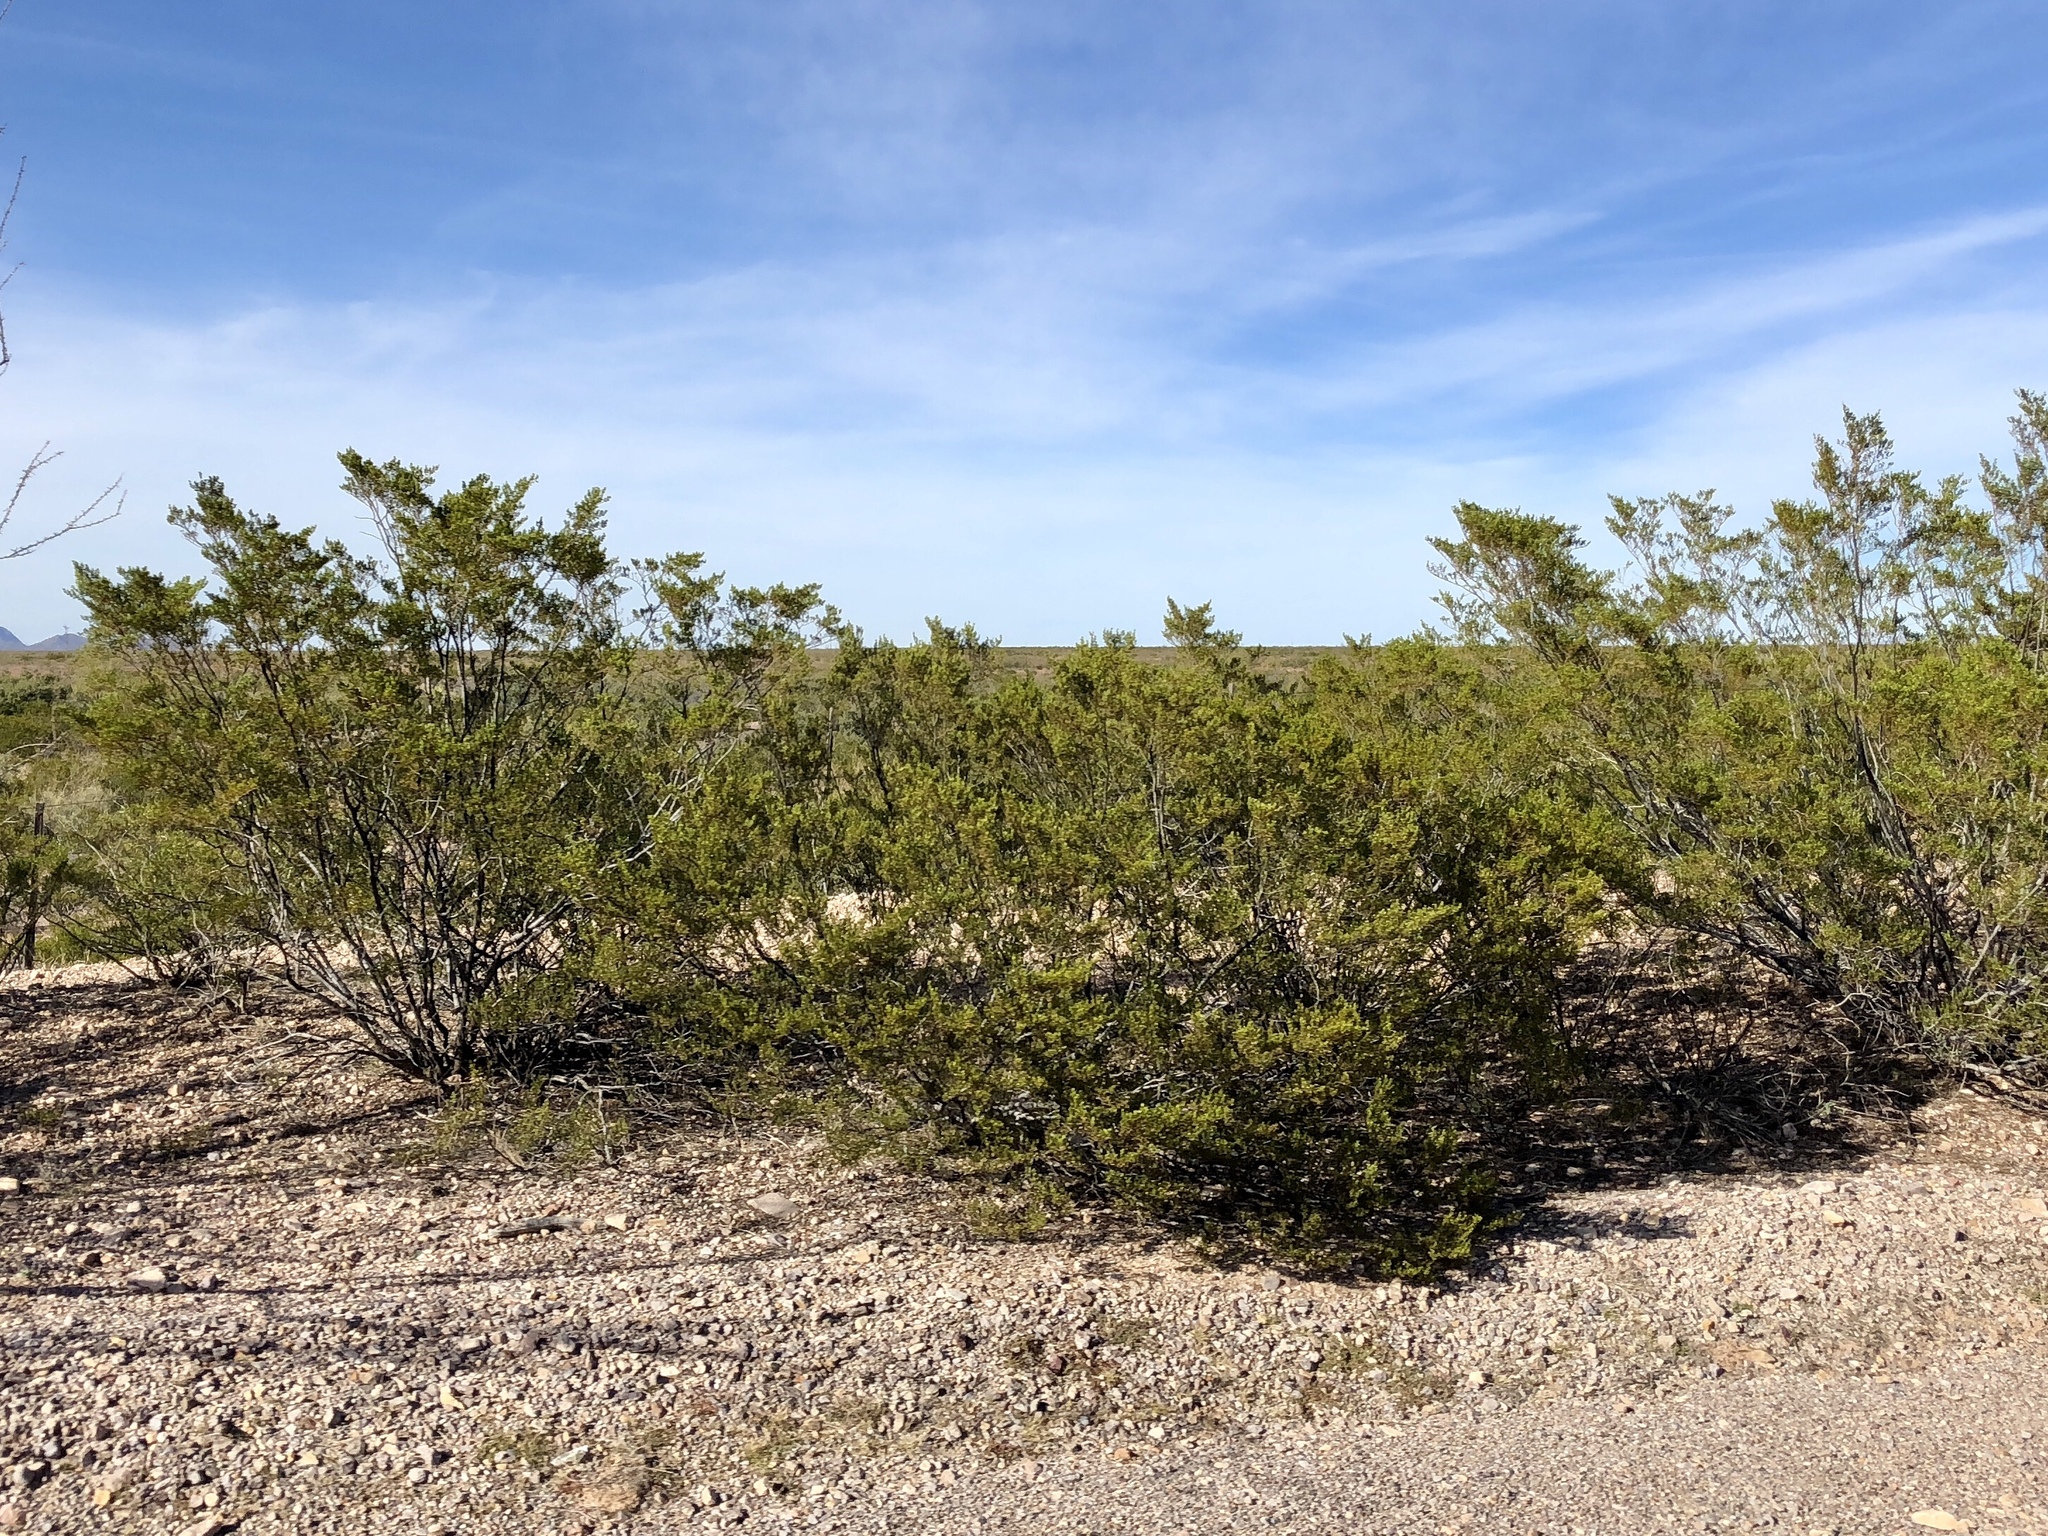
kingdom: Plantae
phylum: Tracheophyta
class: Magnoliopsida
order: Zygophyllales
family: Zygophyllaceae
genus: Larrea
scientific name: Larrea tridentata
